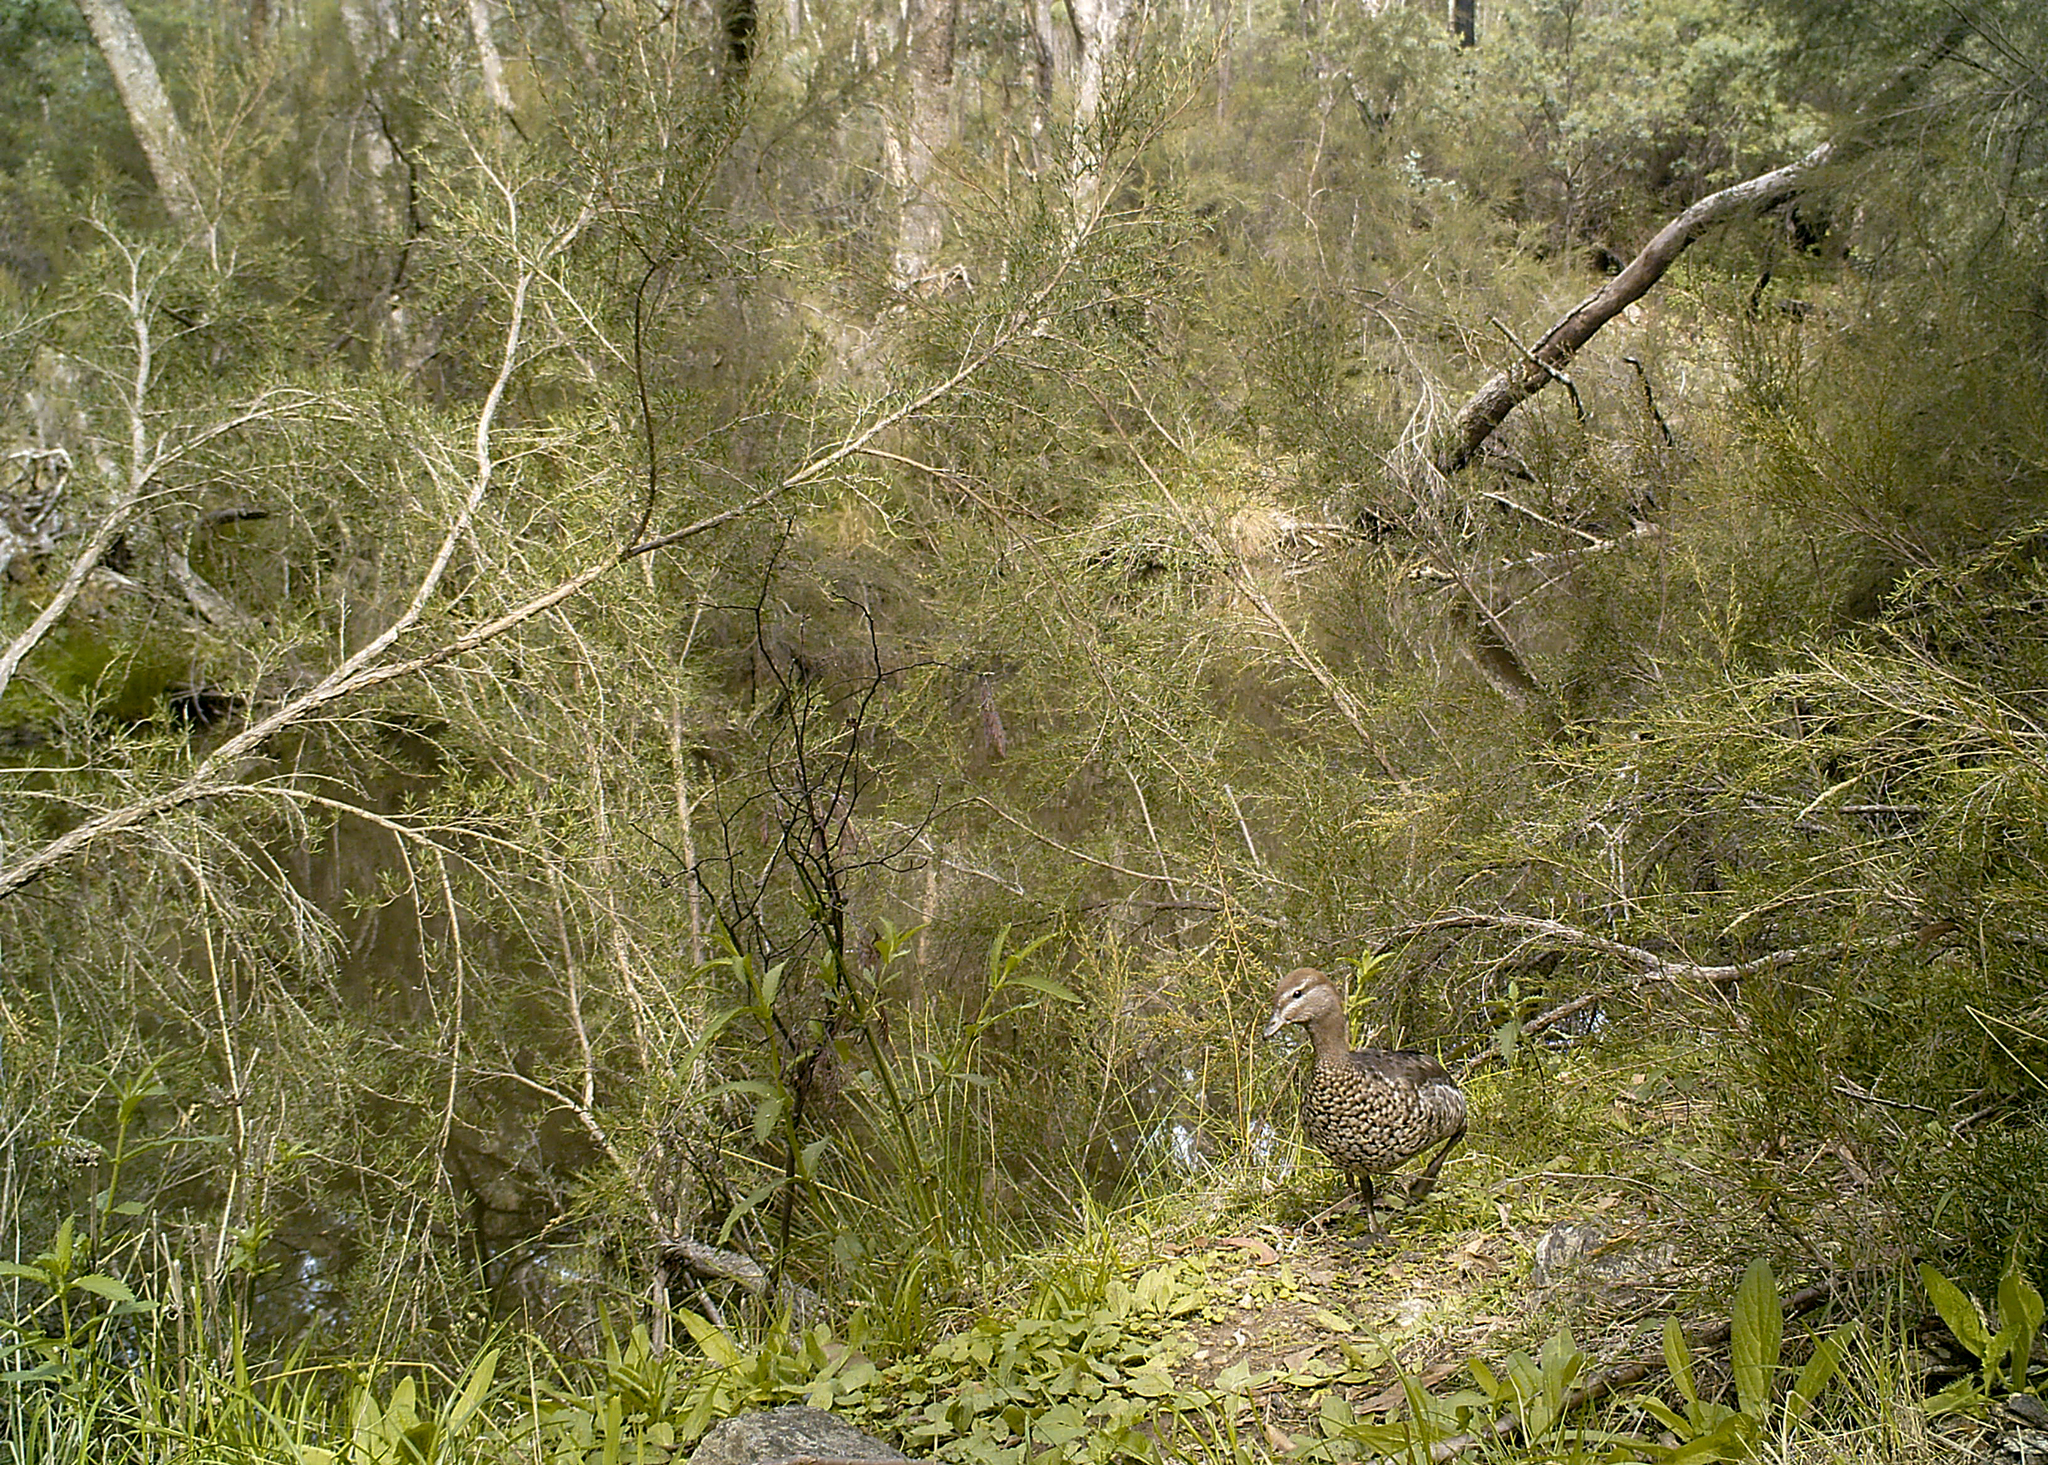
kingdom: Animalia
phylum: Chordata
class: Aves
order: Anseriformes
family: Anatidae
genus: Chenonetta
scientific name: Chenonetta jubata
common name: Maned duck
